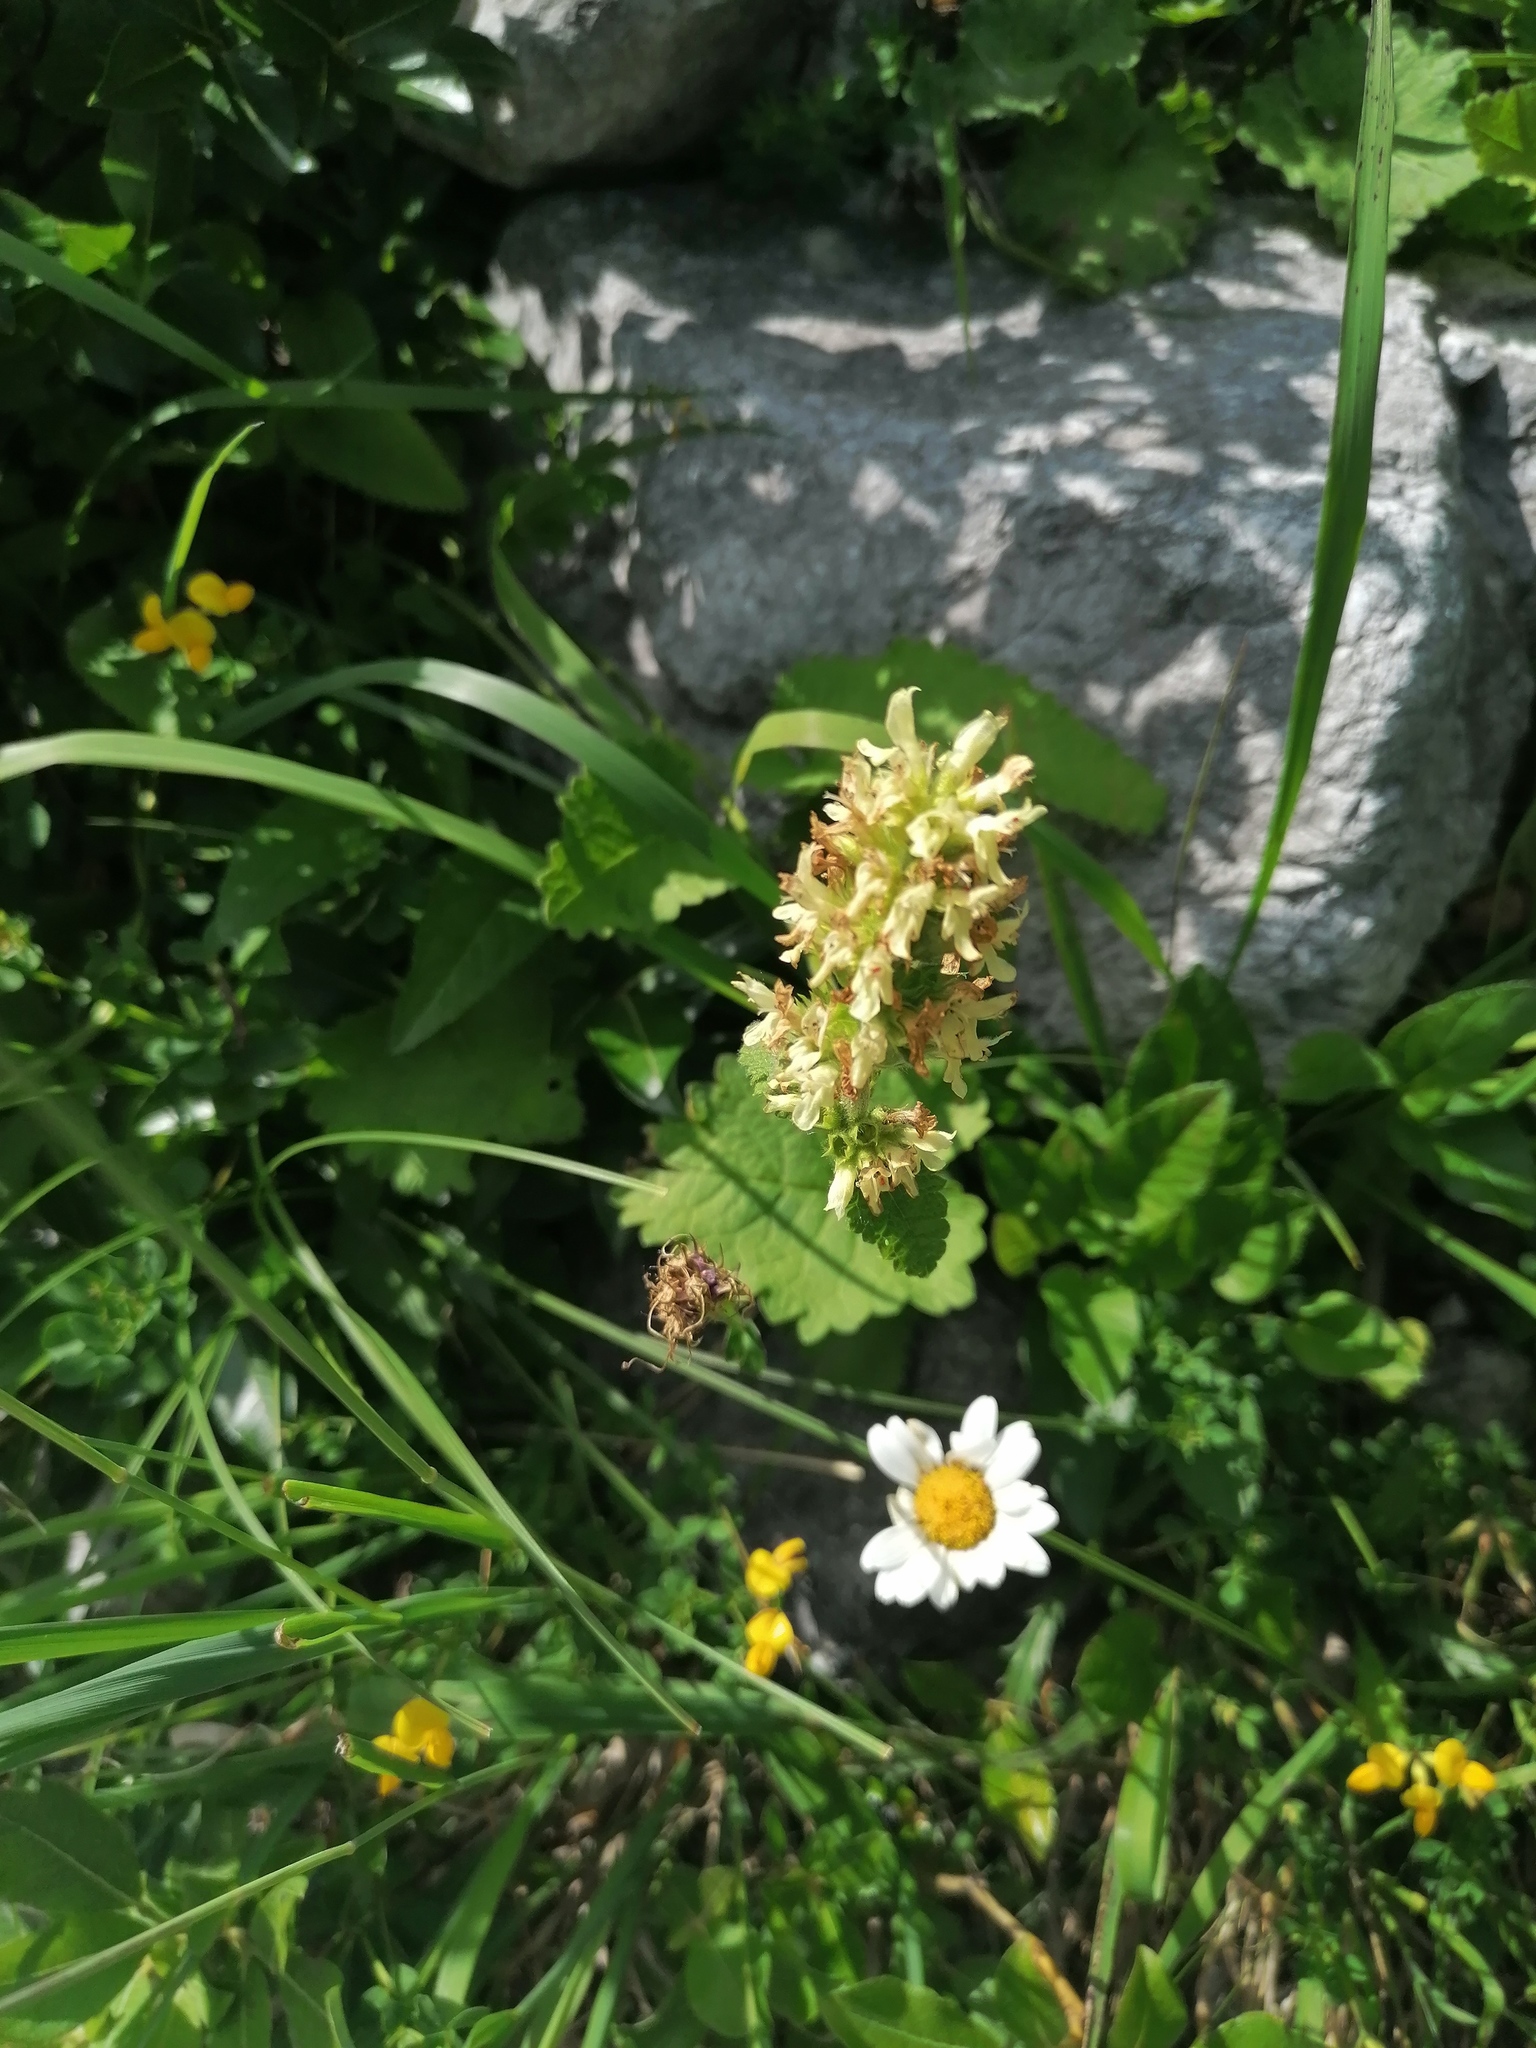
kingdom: Plantae
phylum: Tracheophyta
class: Magnoliopsida
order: Lamiales
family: Lamiaceae
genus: Betonica
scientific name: Betonica alopecuros
